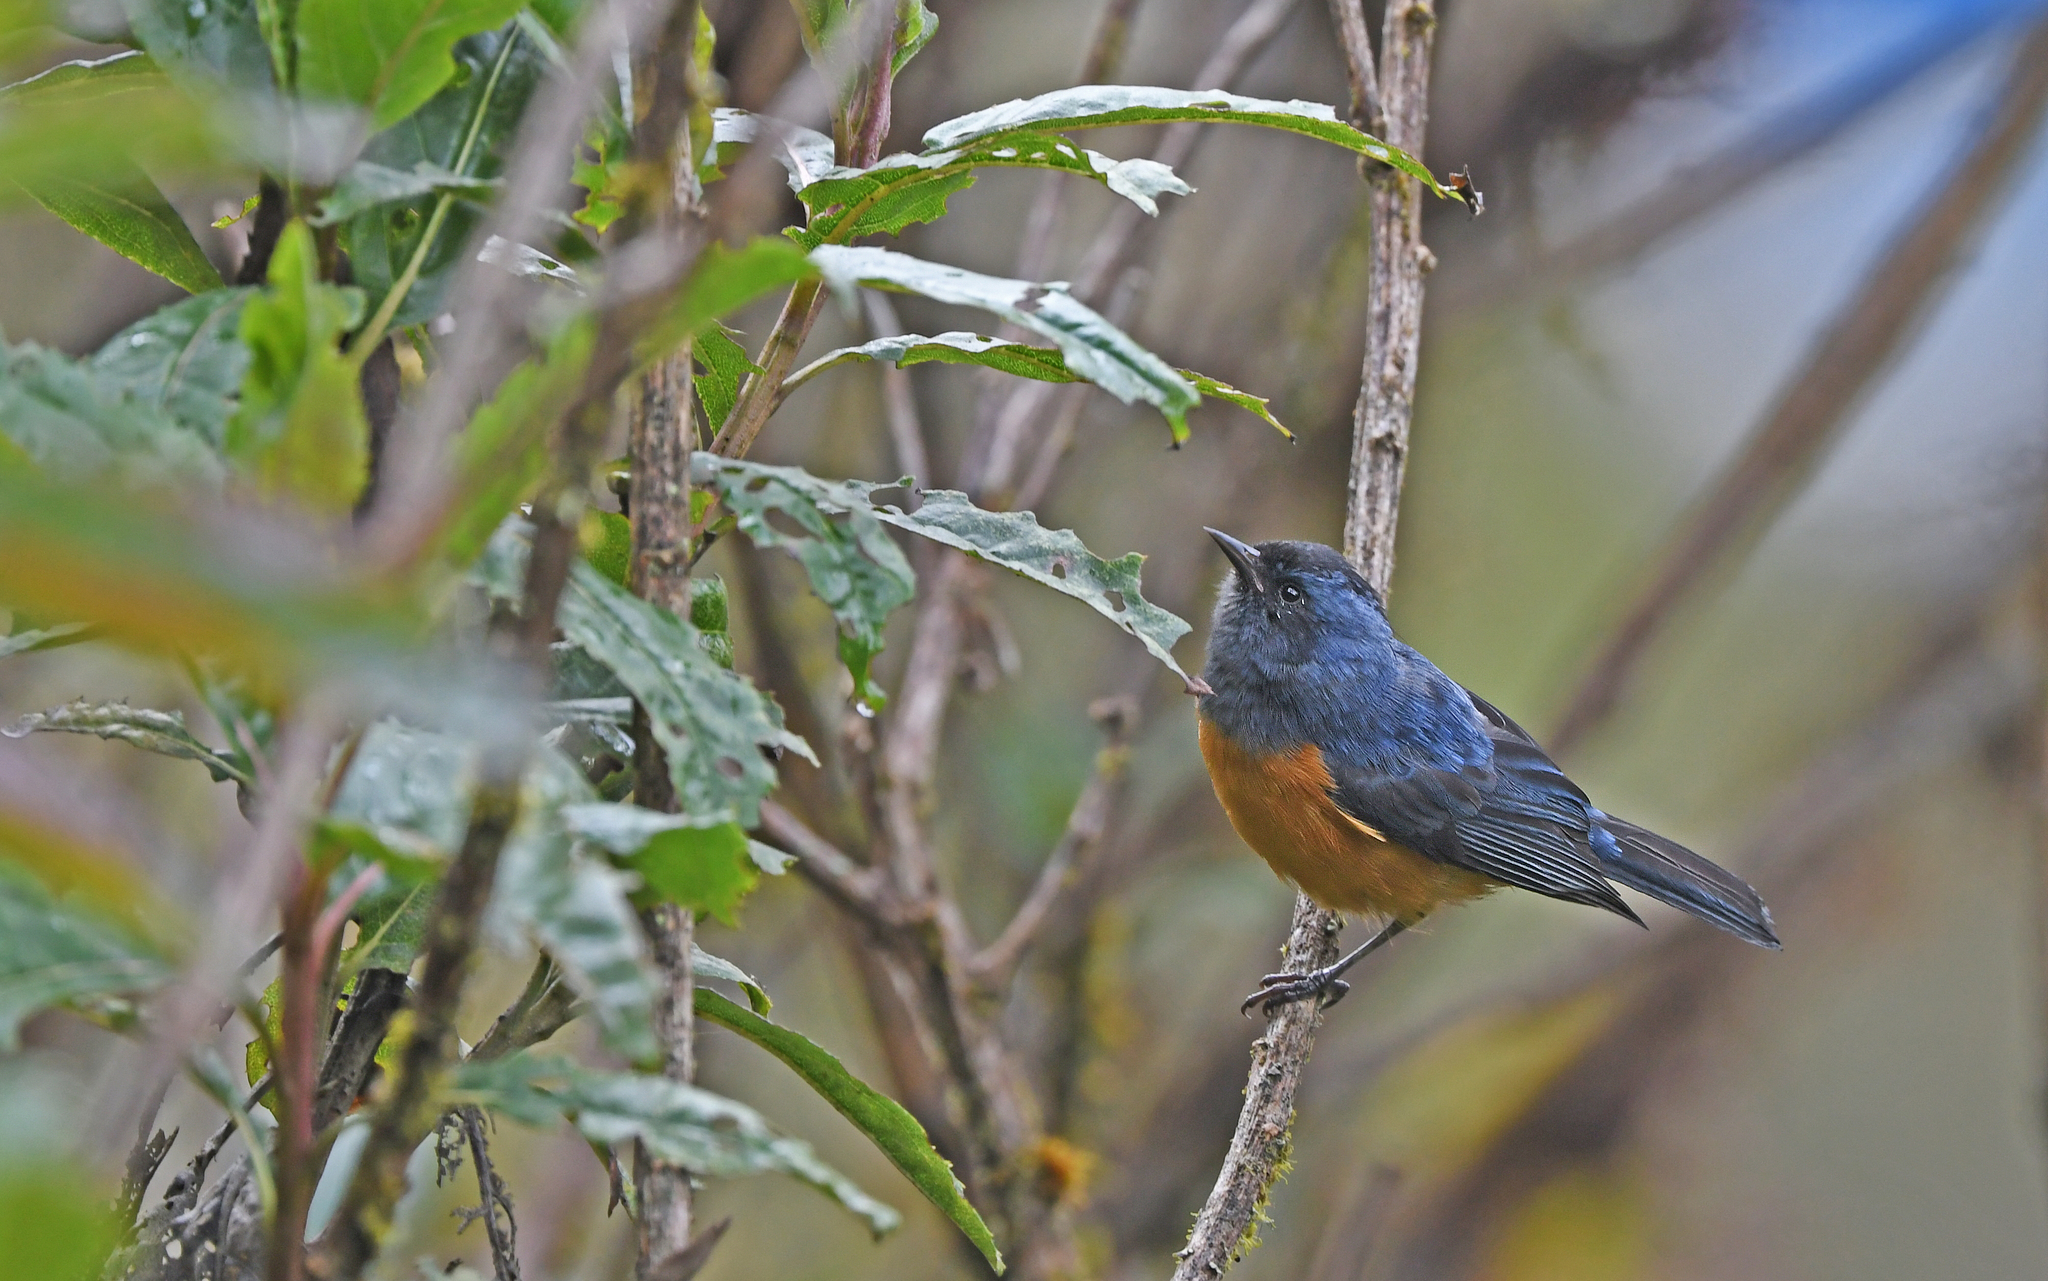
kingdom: Animalia
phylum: Chordata
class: Aves
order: Passeriformes
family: Thraupidae
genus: Conirostrum
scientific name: Conirostrum sitticolor
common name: Blue-backed conebill
